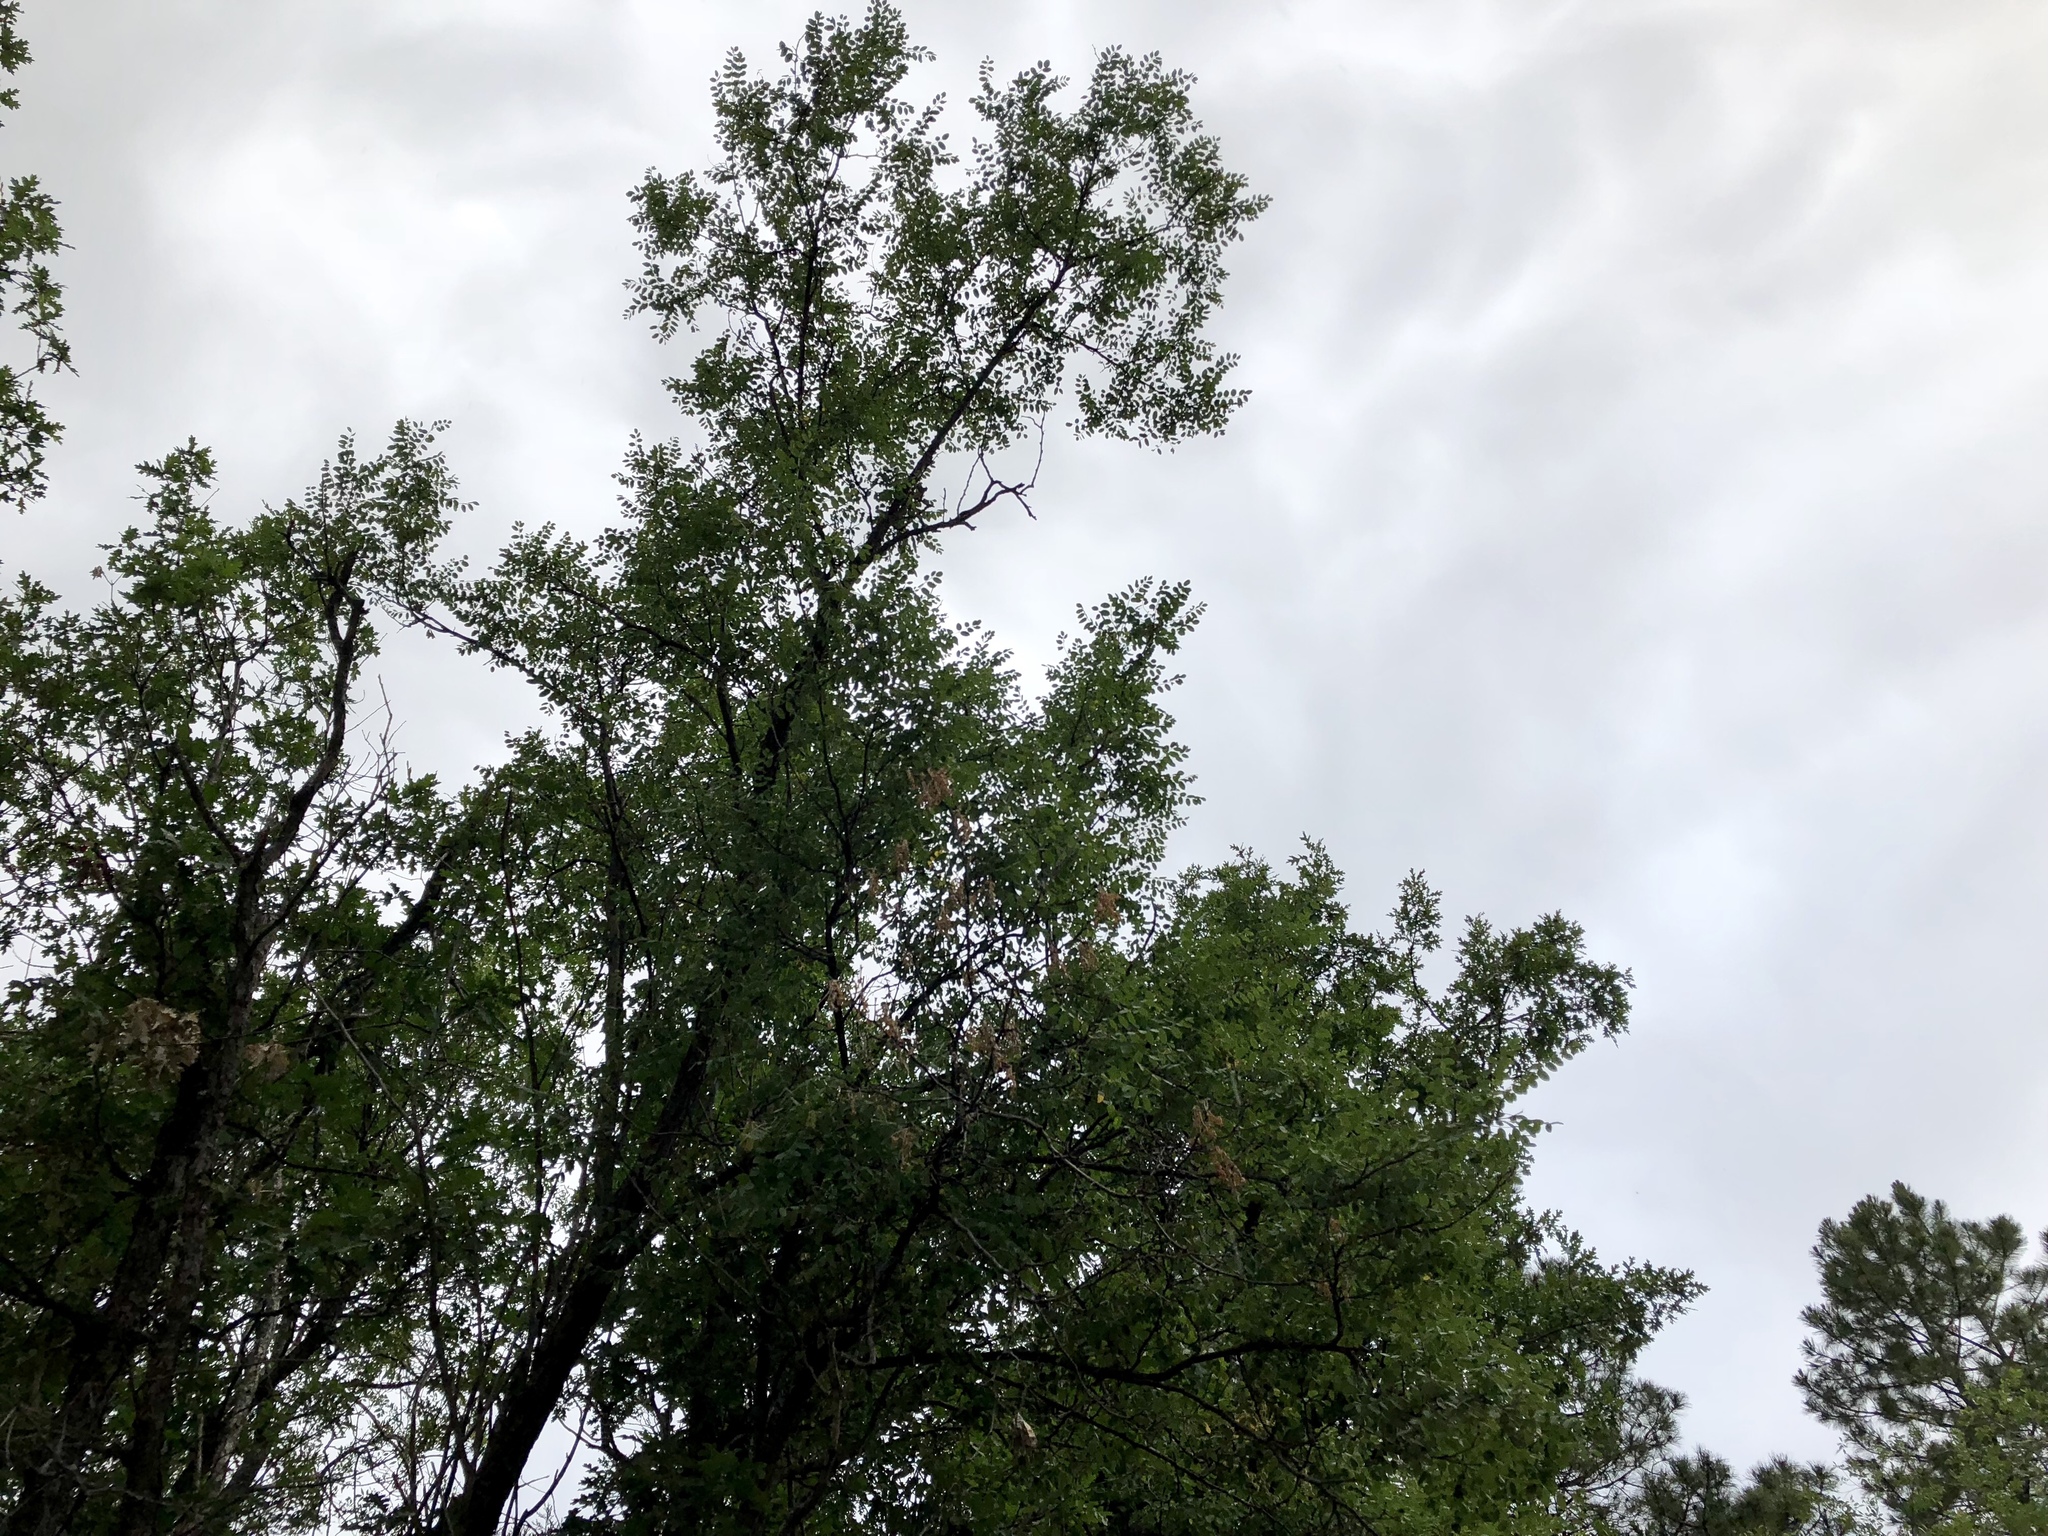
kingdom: Plantae
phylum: Tracheophyta
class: Magnoliopsida
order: Fabales
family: Fabaceae
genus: Robinia
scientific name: Robinia neomexicana
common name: New mexico locust
